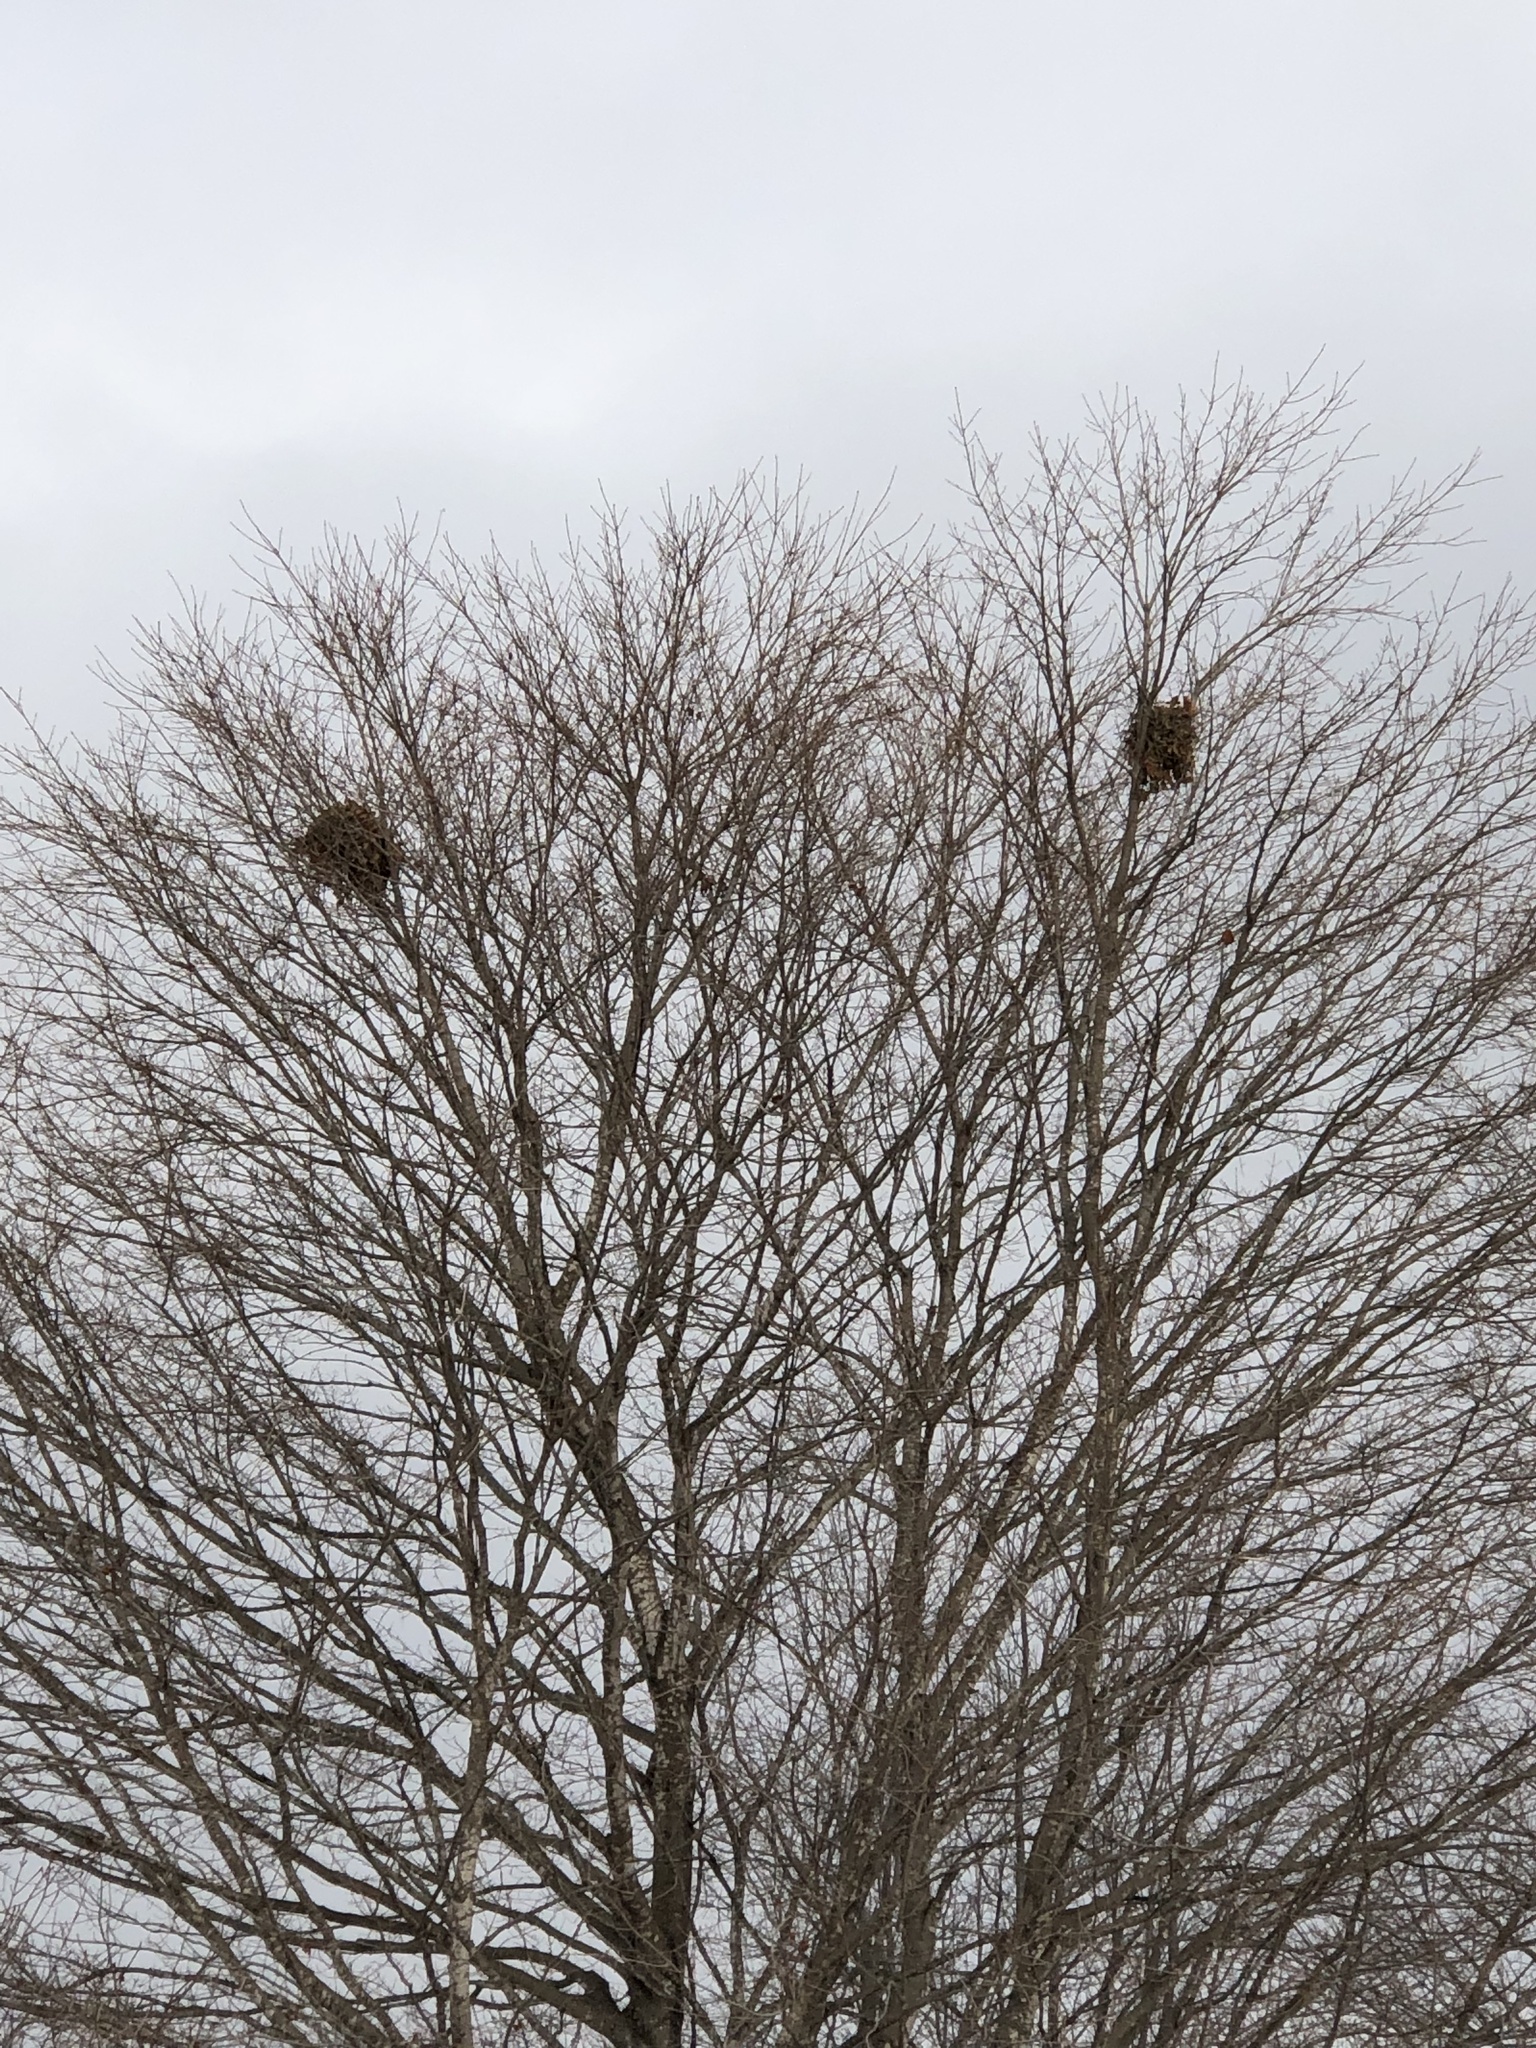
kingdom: Animalia
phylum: Chordata
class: Mammalia
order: Rodentia
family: Sciuridae
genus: Sciurus
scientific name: Sciurus carolinensis
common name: Eastern gray squirrel
